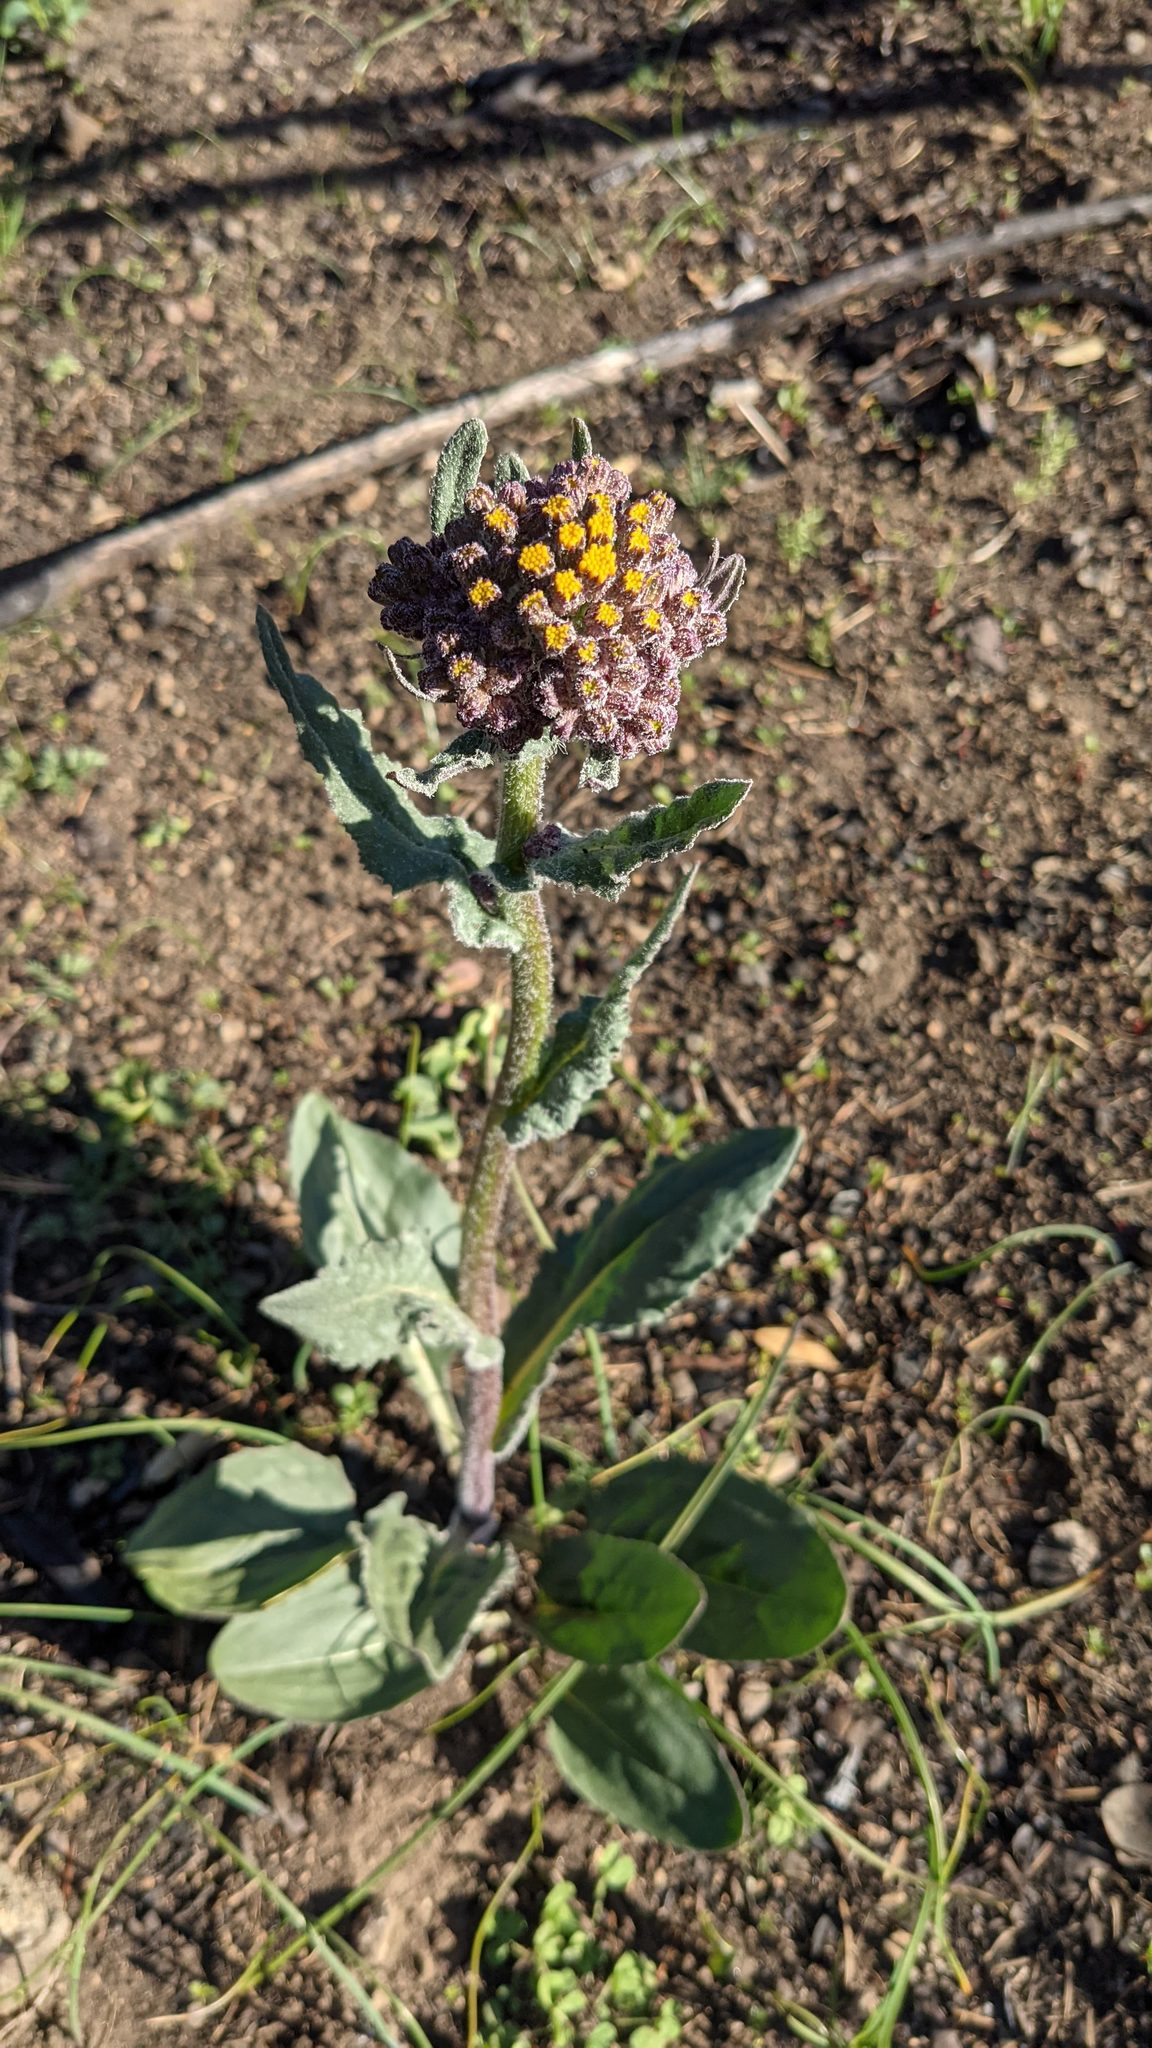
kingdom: Plantae
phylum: Tracheophyta
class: Magnoliopsida
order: Asterales
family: Asteraceae
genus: Senecio
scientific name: Senecio aronicoides
